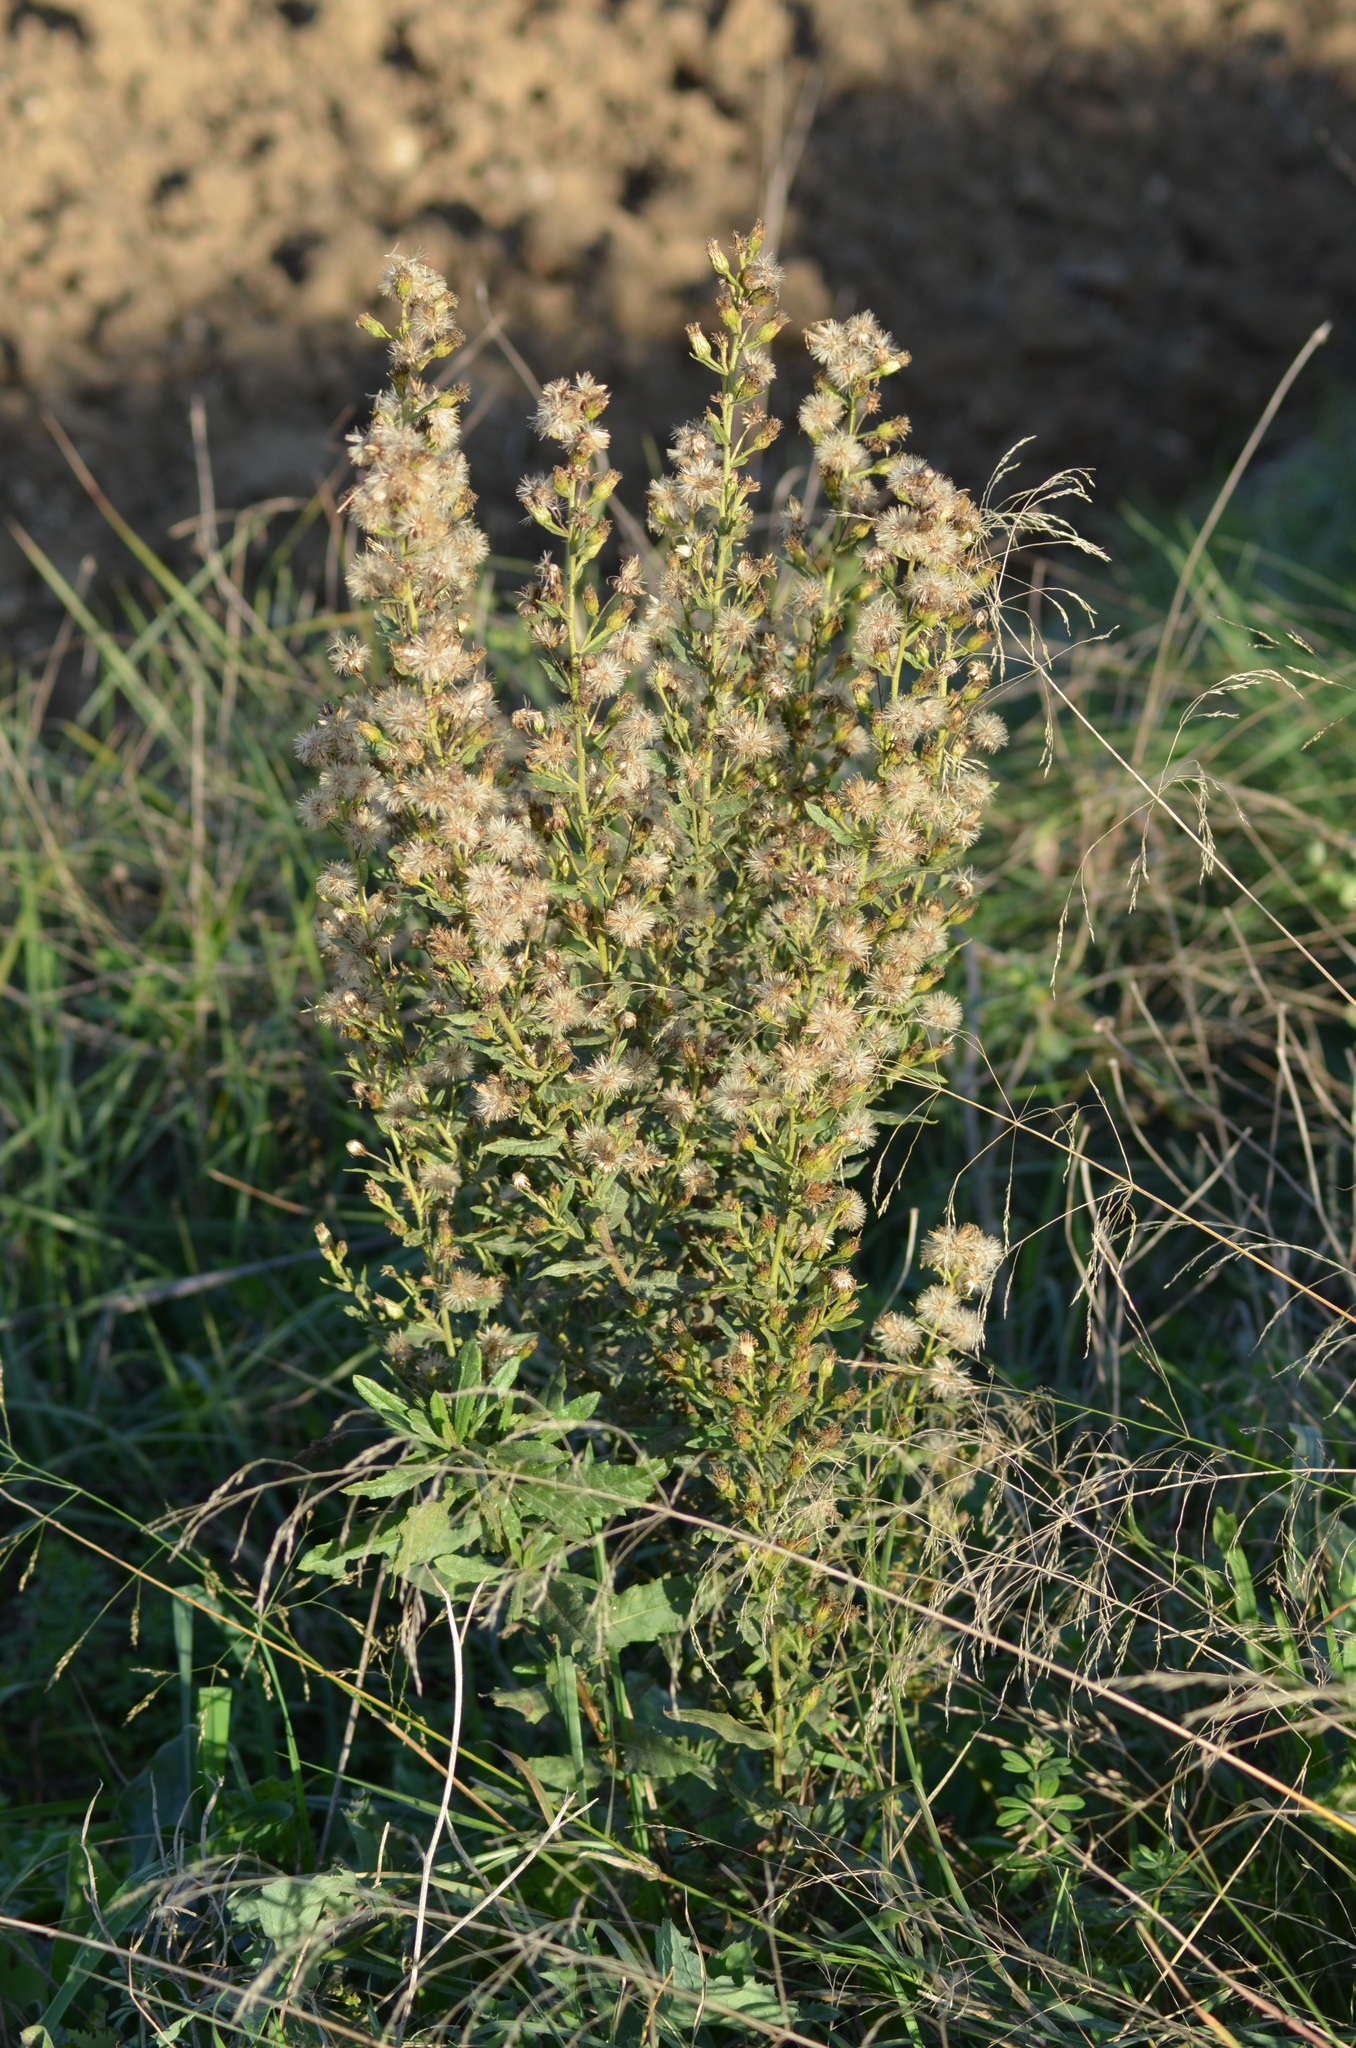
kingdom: Plantae
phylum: Tracheophyta
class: Magnoliopsida
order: Asterales
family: Asteraceae
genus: Dittrichia
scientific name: Dittrichia viscosa
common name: Woody fleabane
